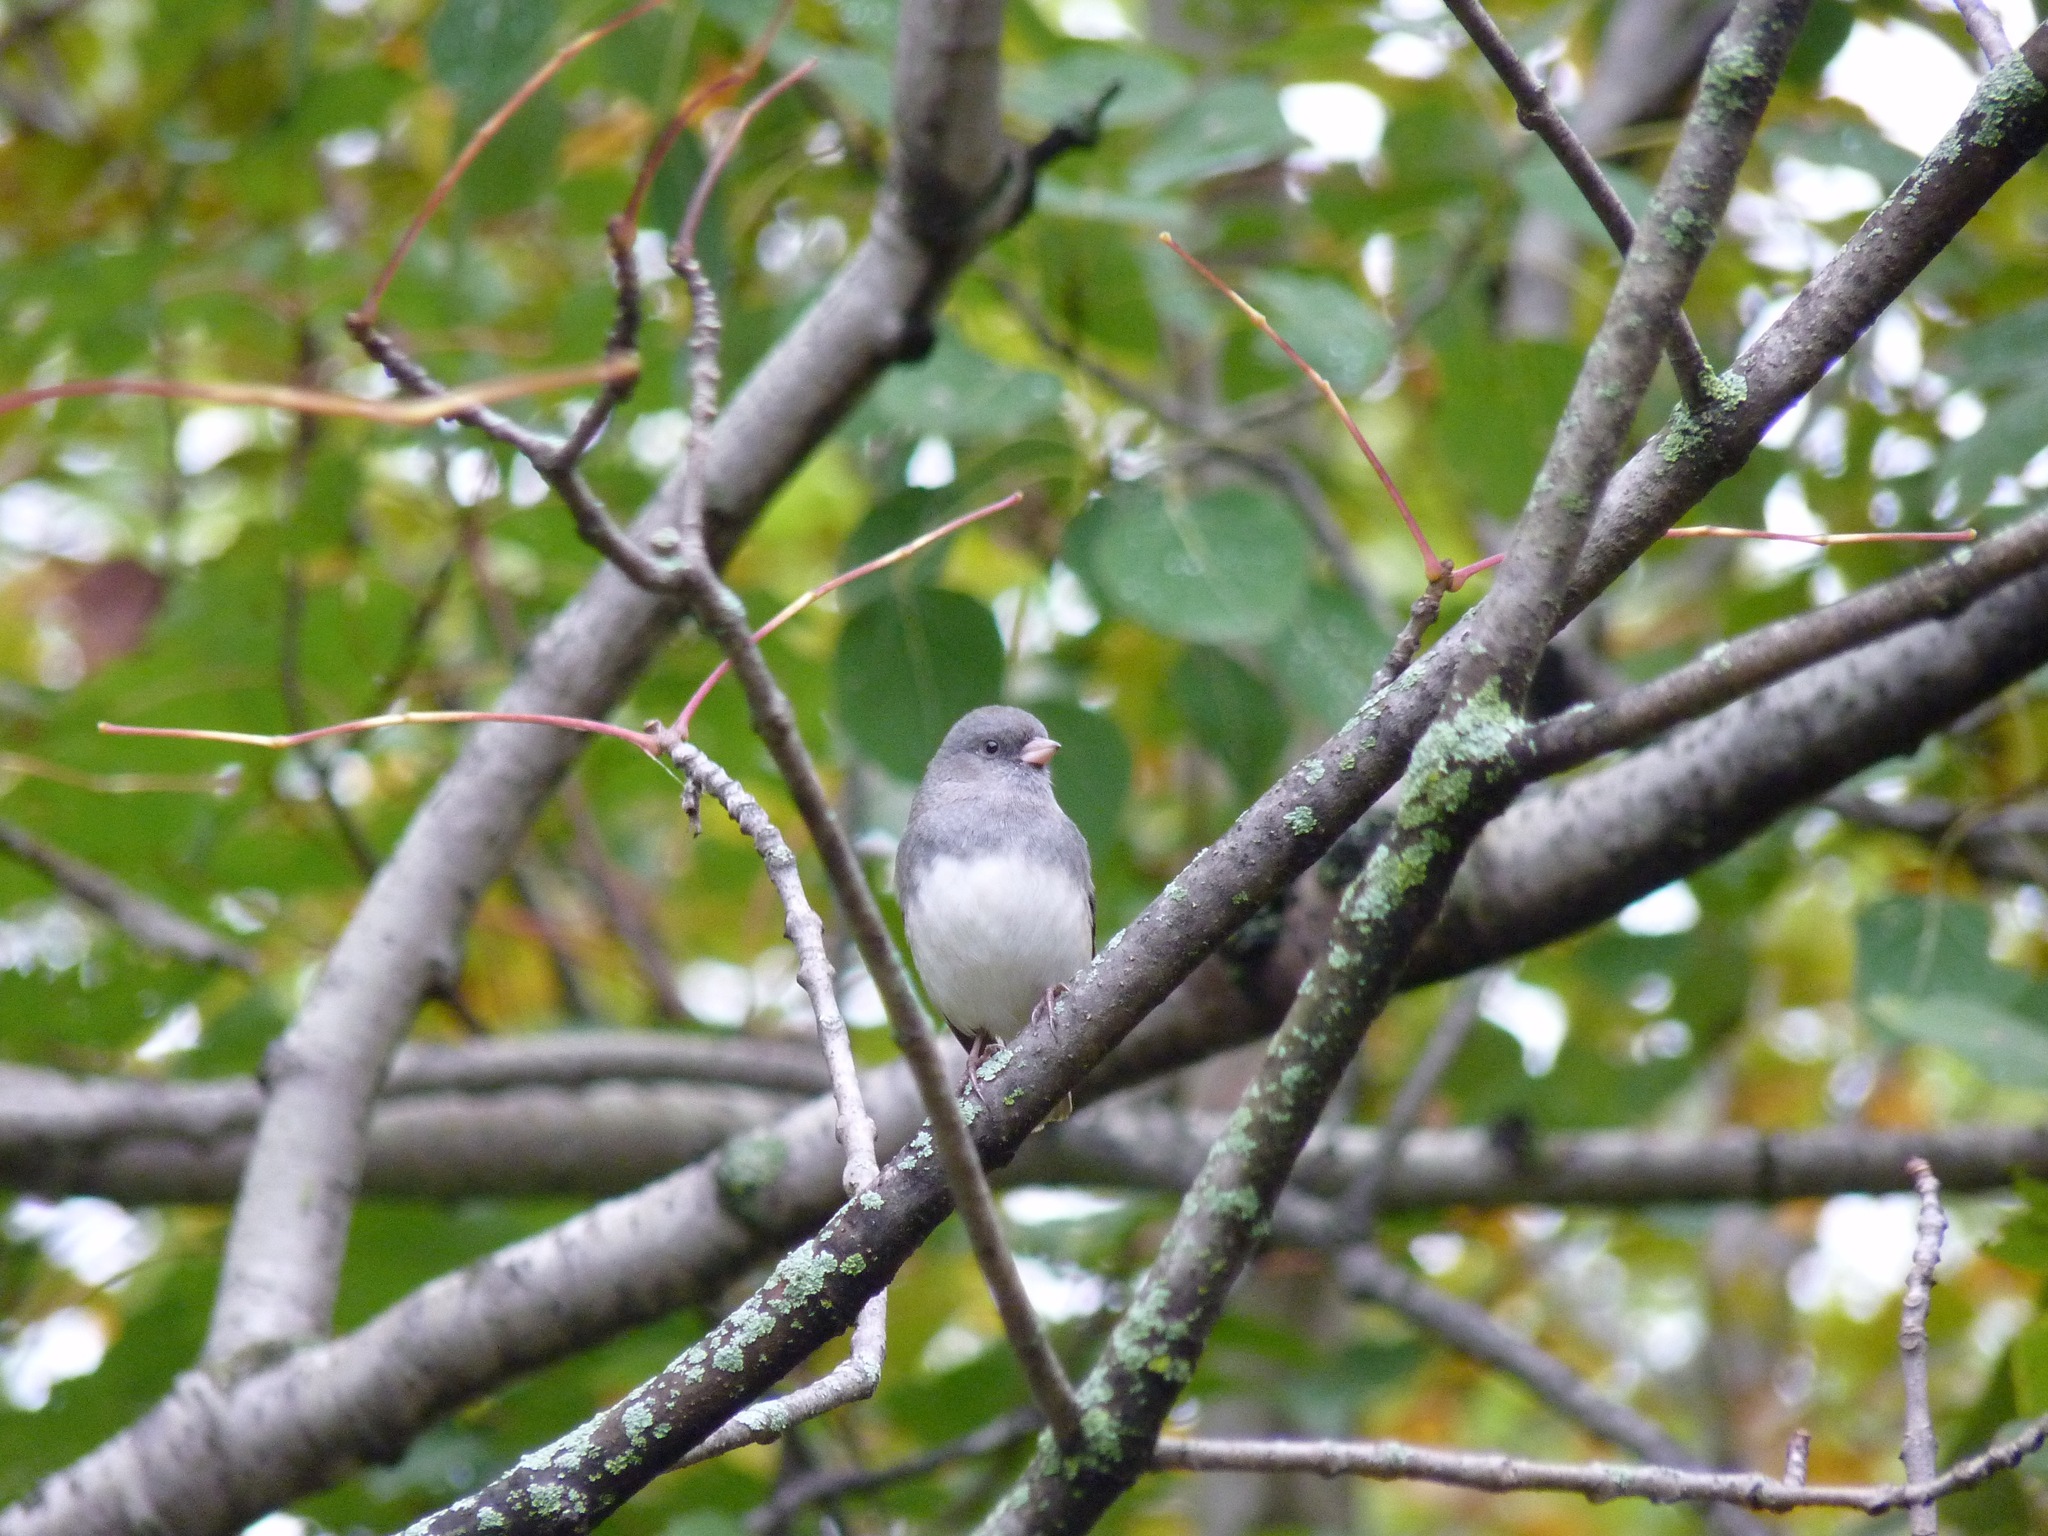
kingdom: Animalia
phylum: Chordata
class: Aves
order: Passeriformes
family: Passerellidae
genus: Junco
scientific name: Junco hyemalis
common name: Dark-eyed junco
